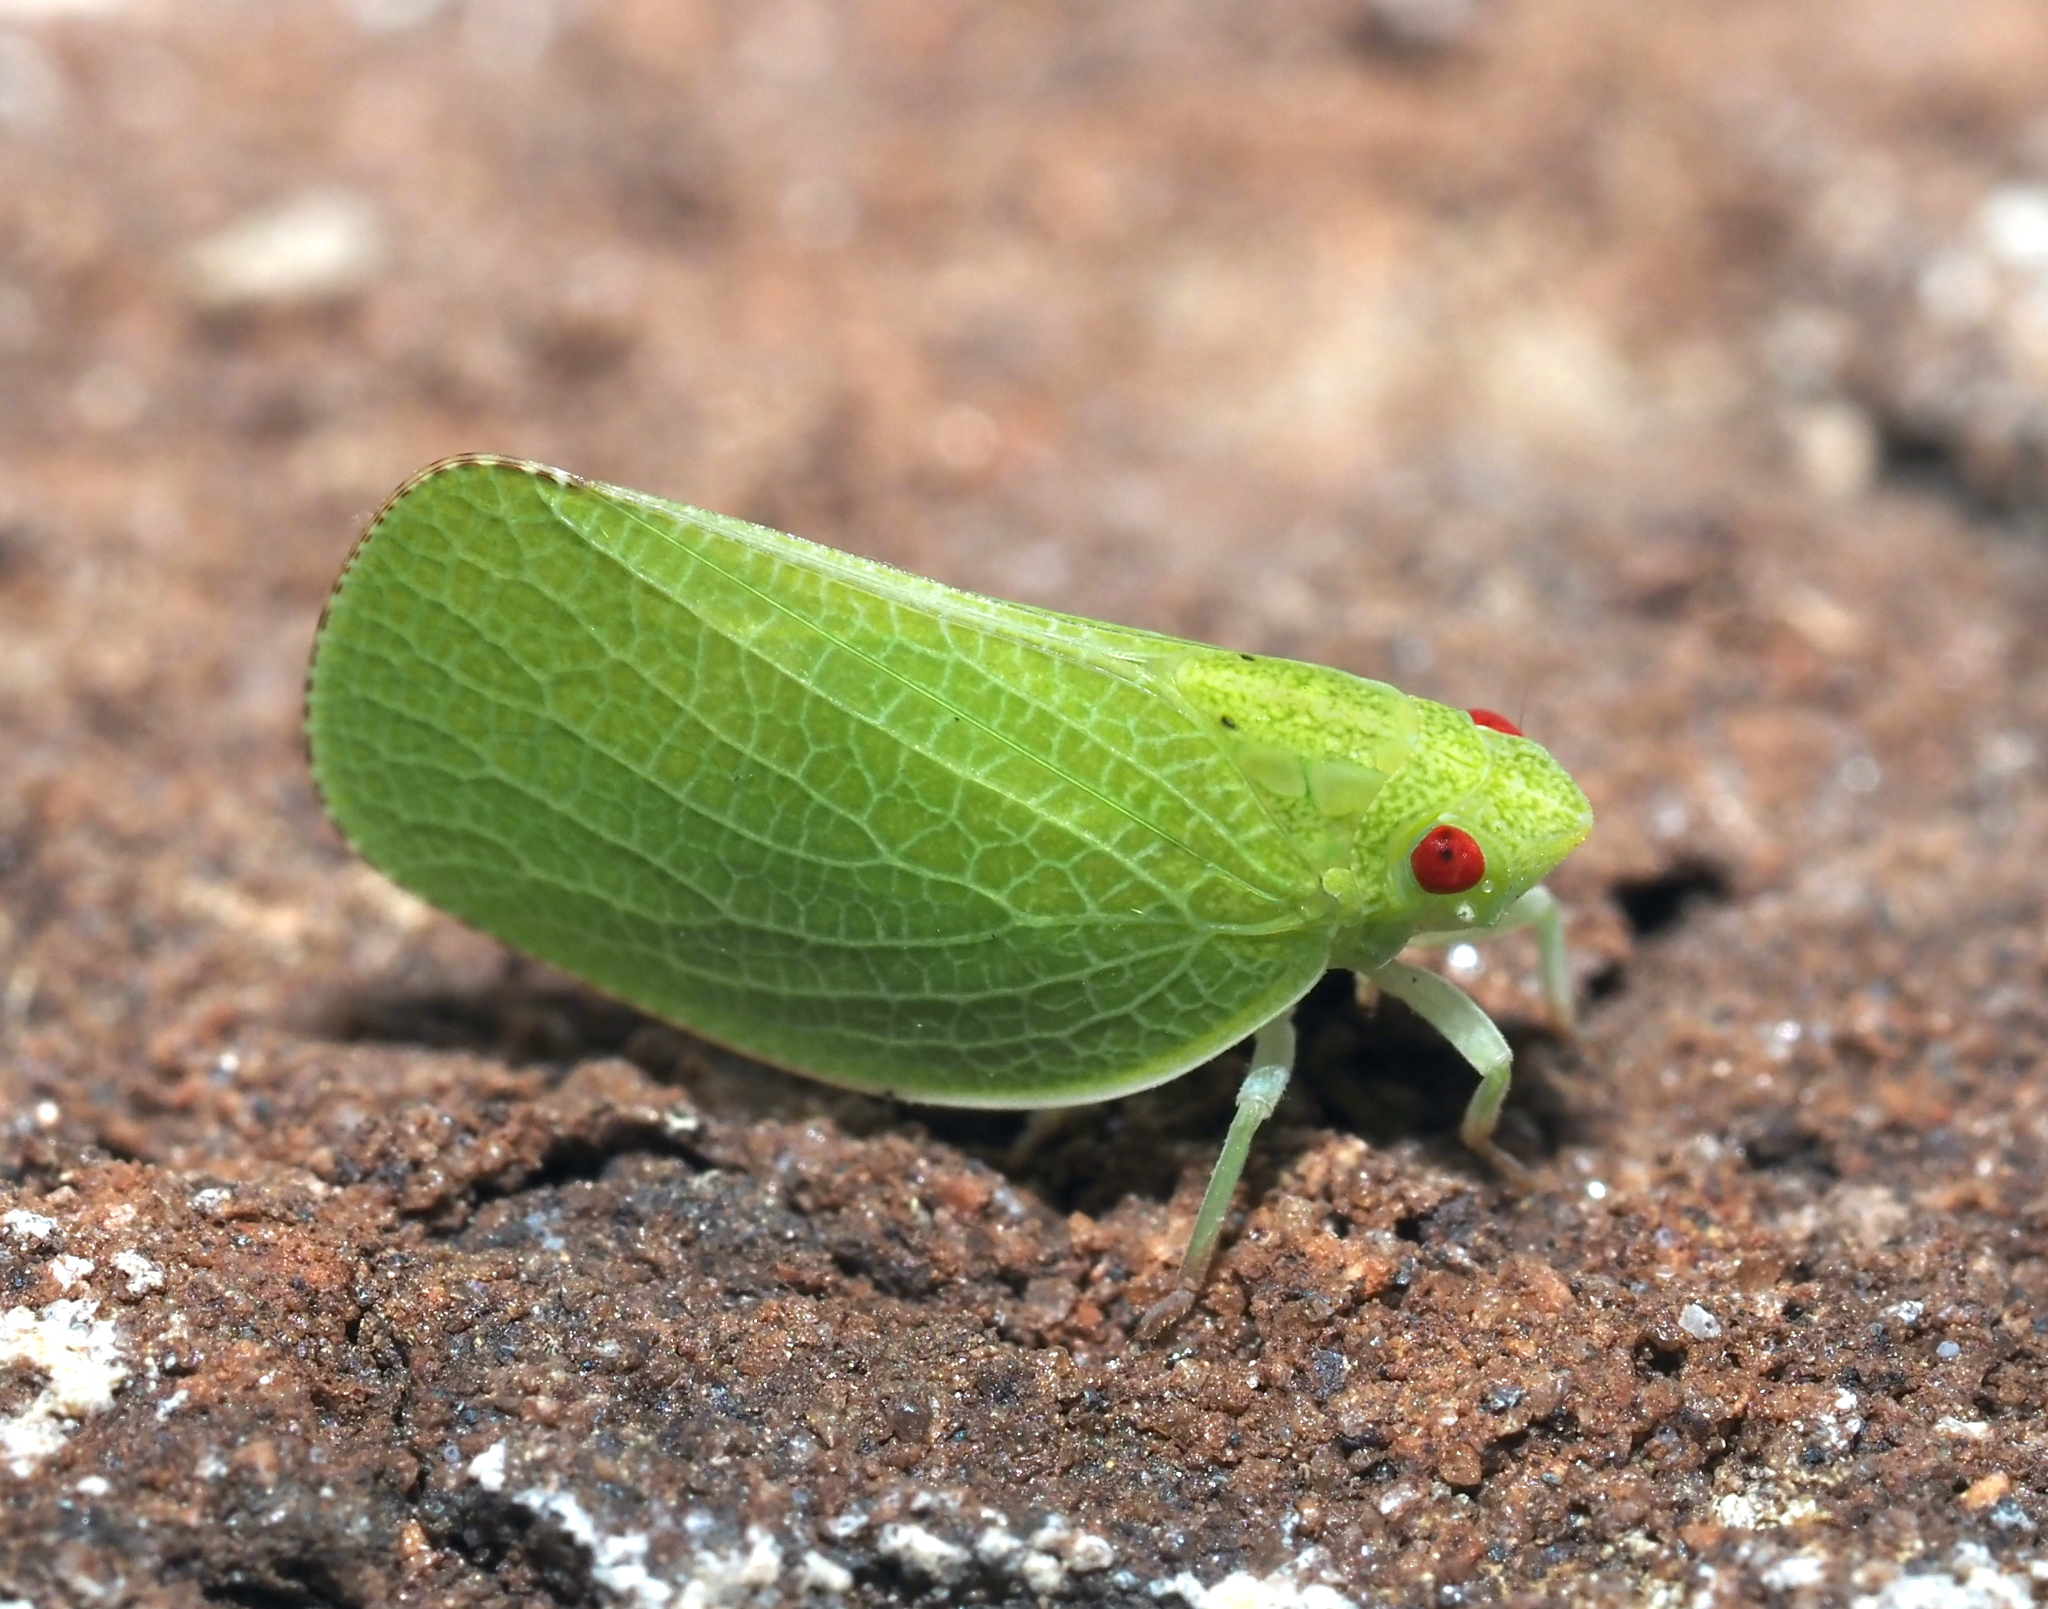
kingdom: Animalia
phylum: Arthropoda
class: Insecta
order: Hemiptera
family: Acanaloniidae
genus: Acanalonia
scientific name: Acanalonia conica
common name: Green cone-headed planthopper
